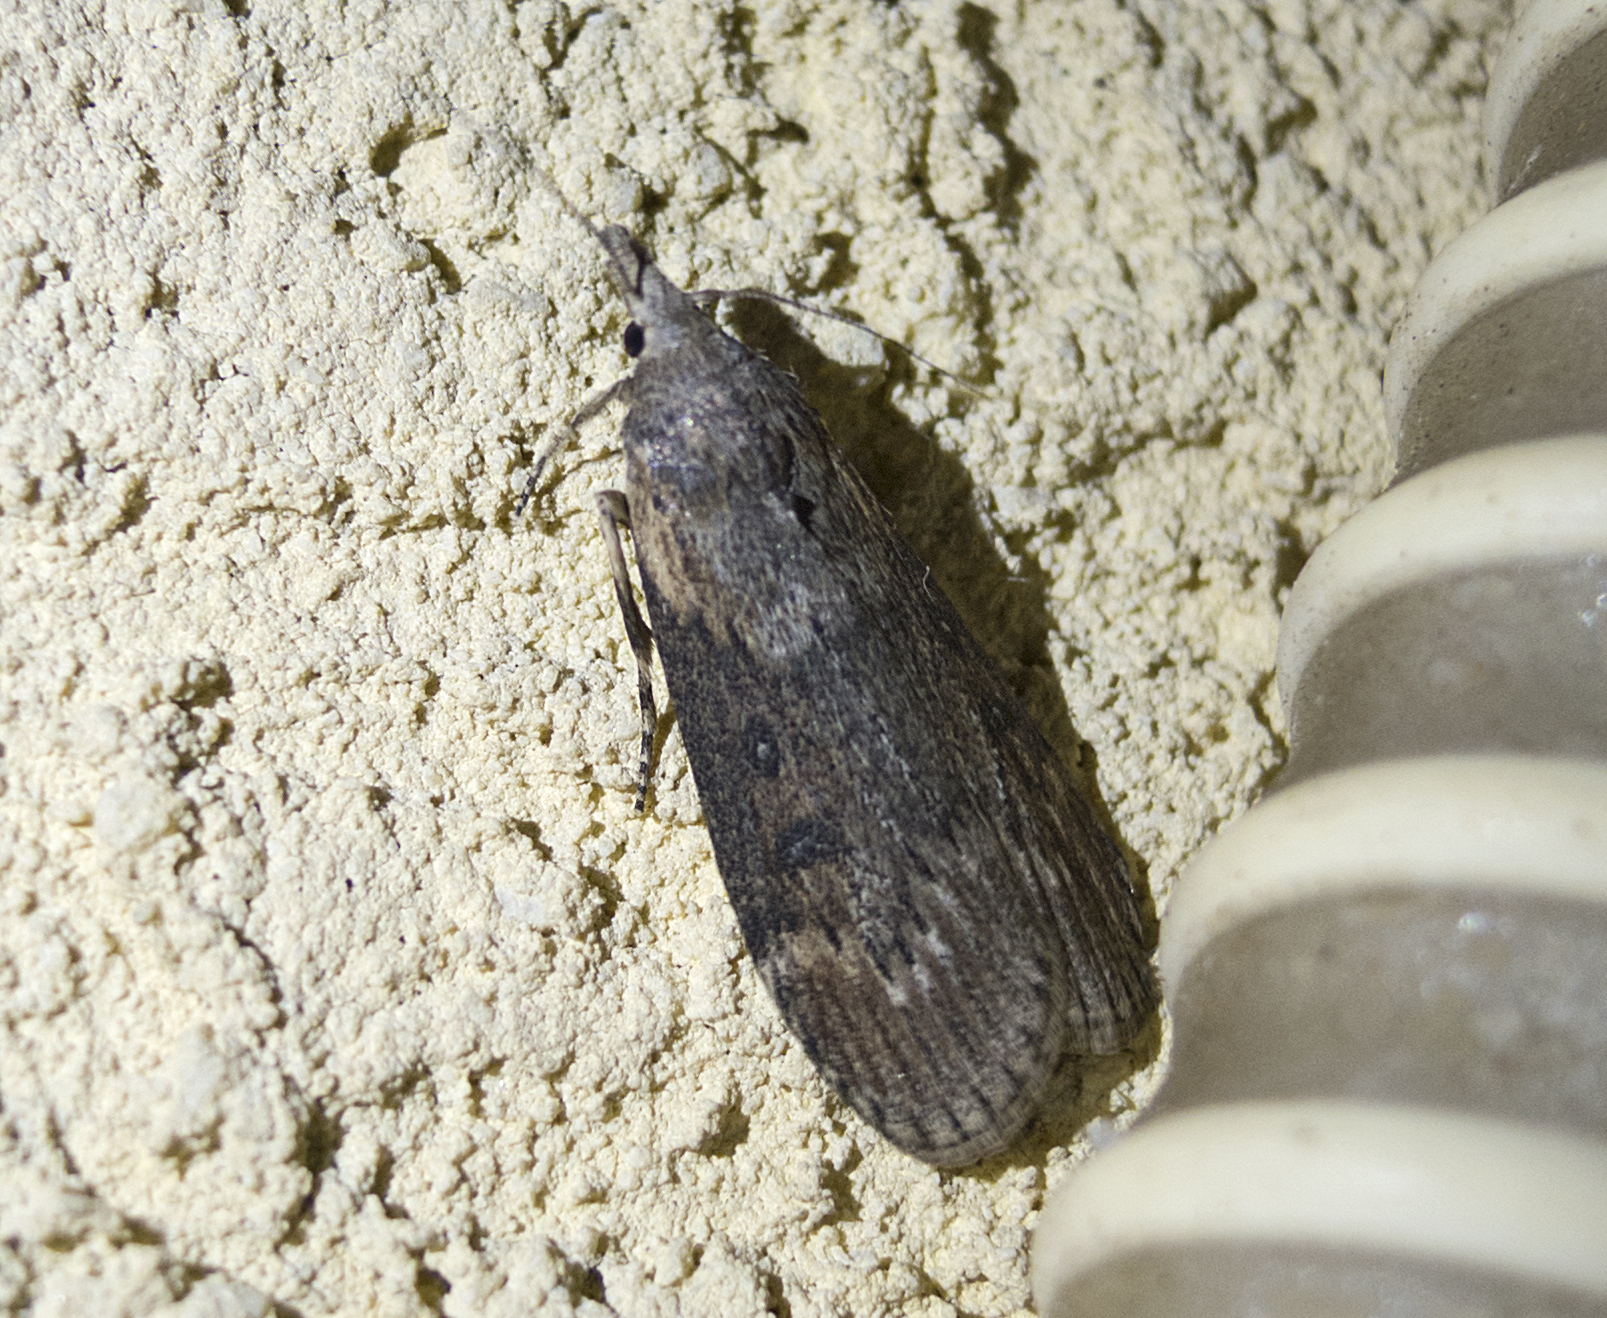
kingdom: Animalia
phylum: Arthropoda
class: Insecta
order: Lepidoptera
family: Pyralidae
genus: Lamoria
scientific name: Lamoria anella
